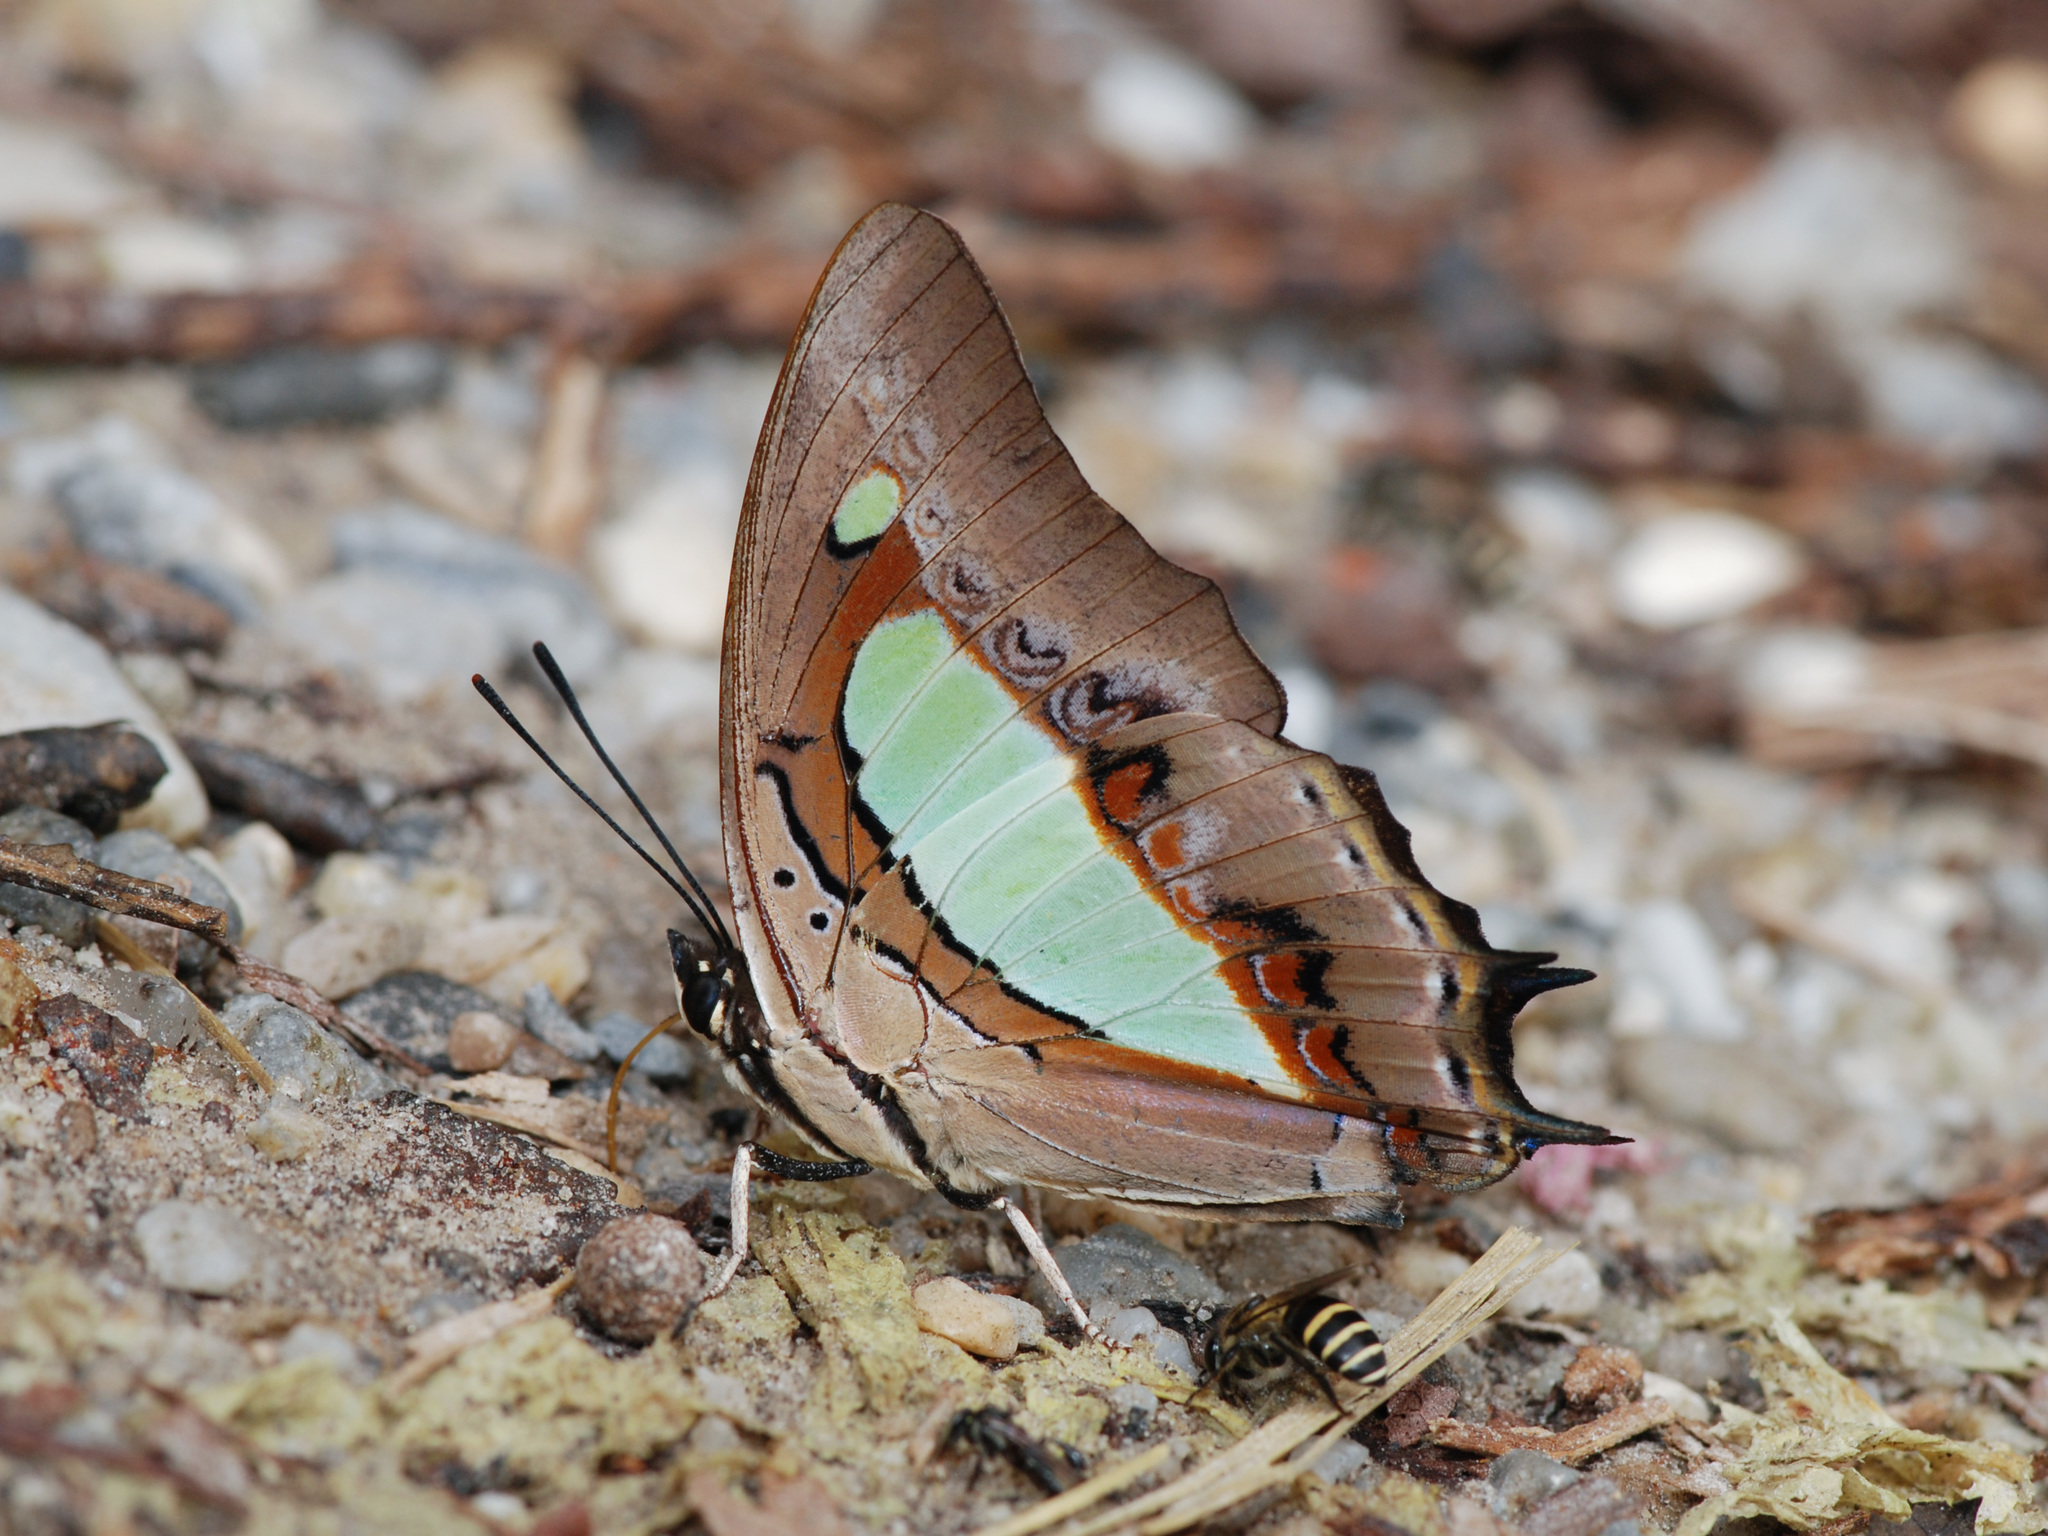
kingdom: Animalia
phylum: Arthropoda
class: Insecta
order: Lepidoptera
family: Nymphalidae
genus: Polyura
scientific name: Polyura athamas
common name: Common nawab
